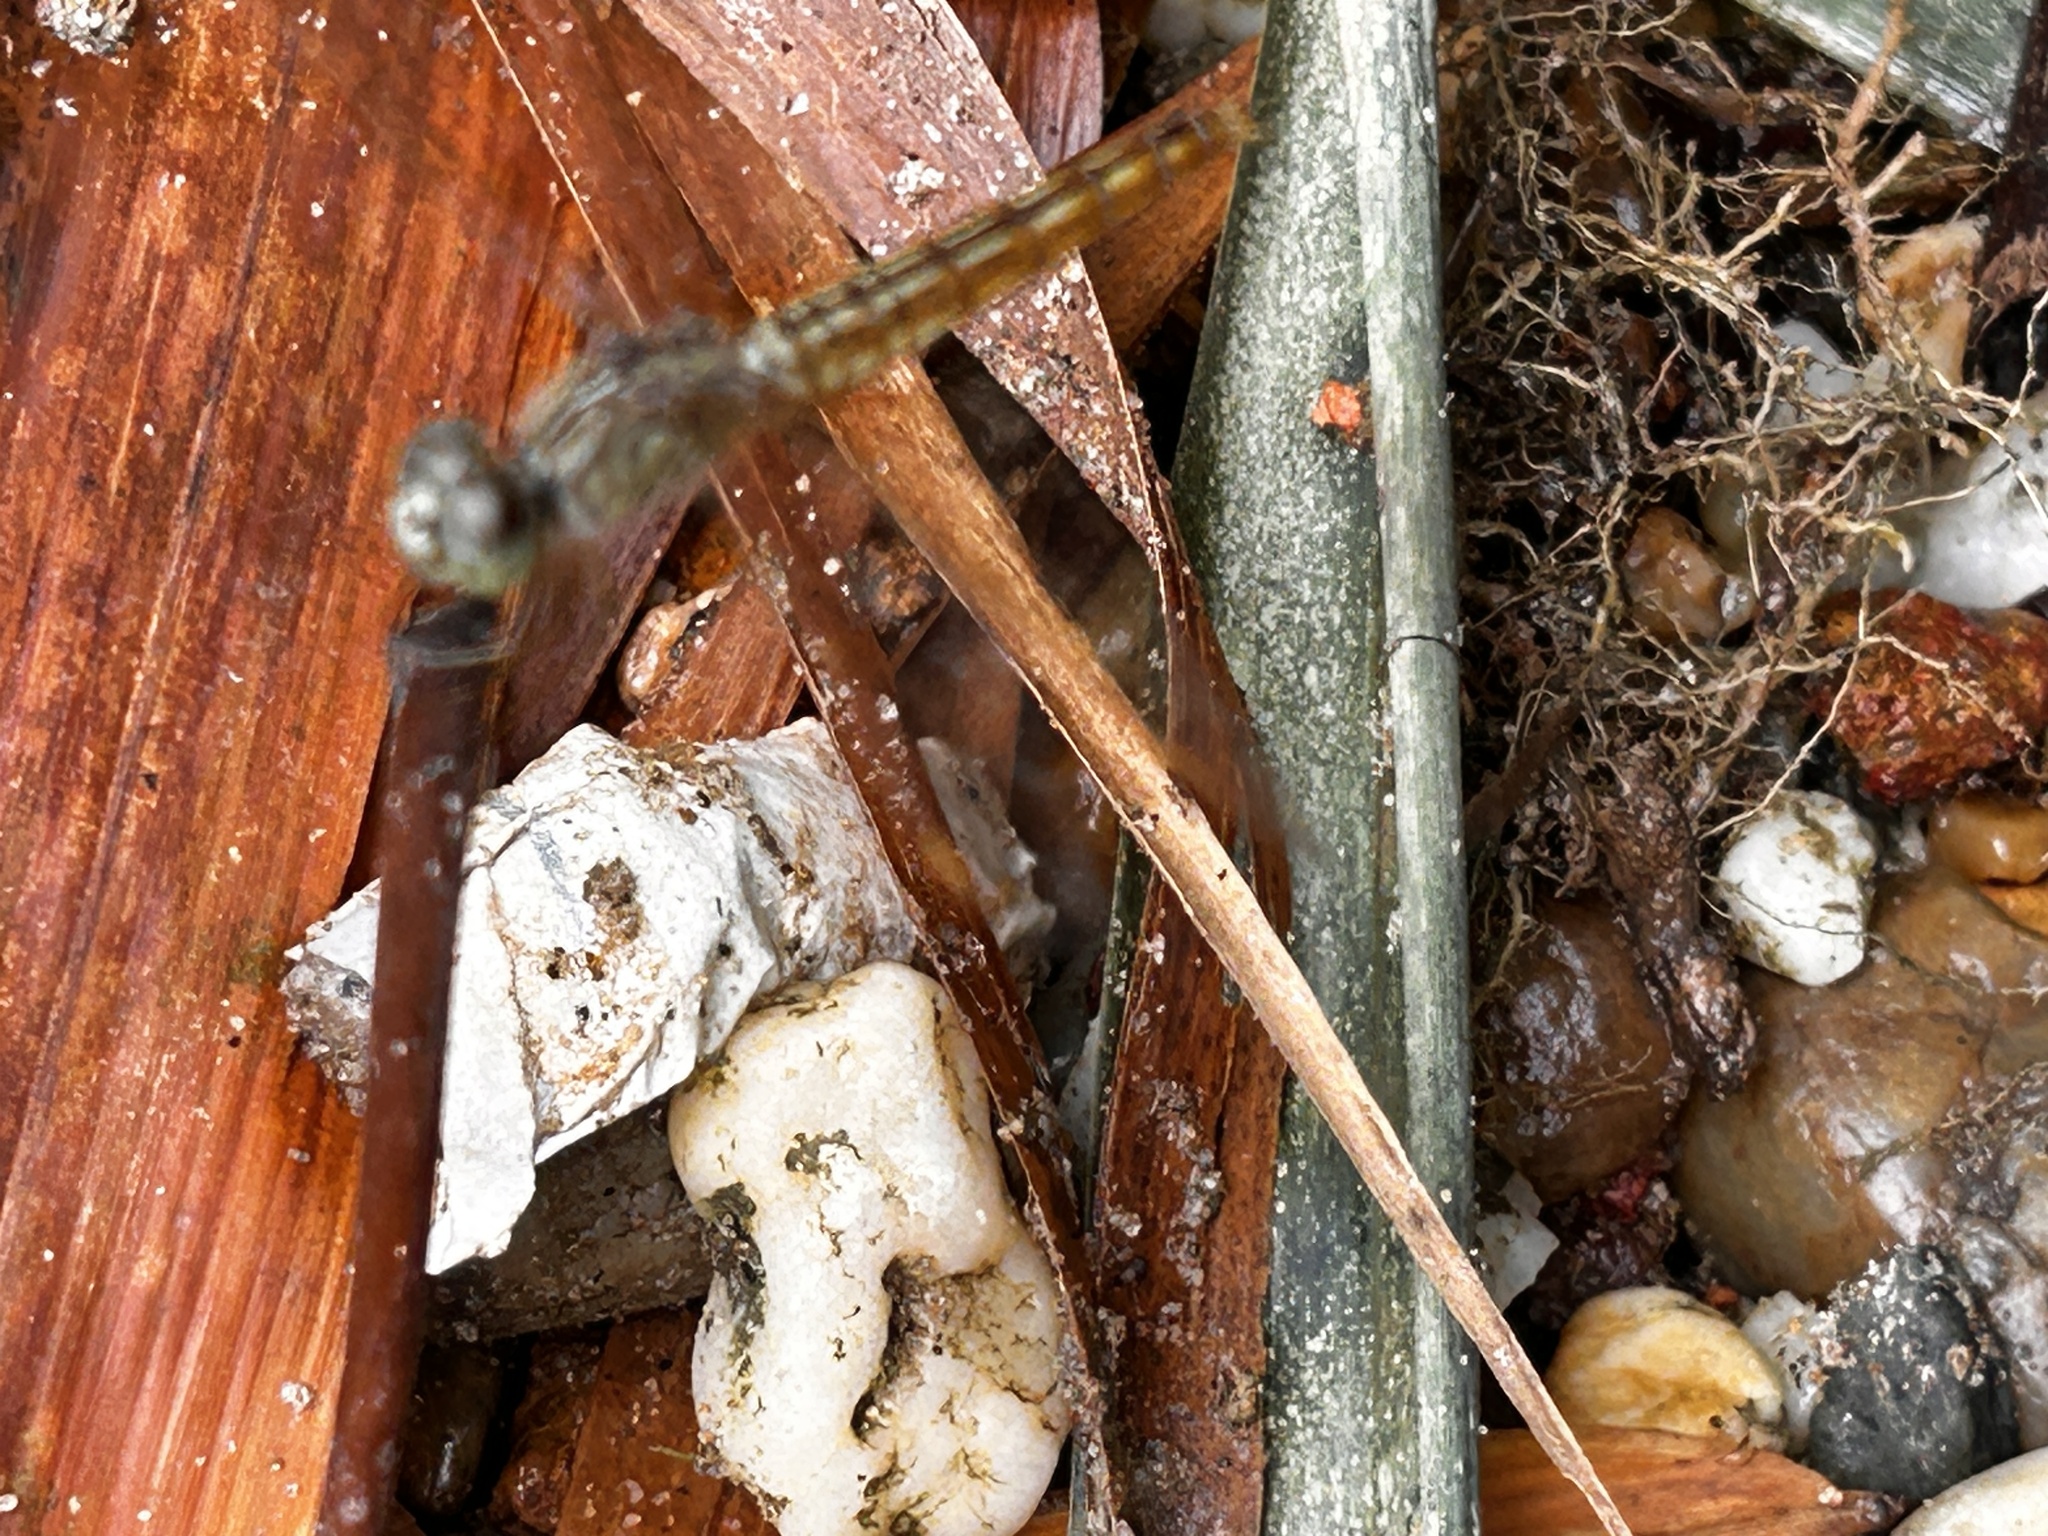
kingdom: Animalia
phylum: Arthropoda
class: Insecta
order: Odonata
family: Libellulidae
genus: Brachythemis
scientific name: Brachythemis contaminata
